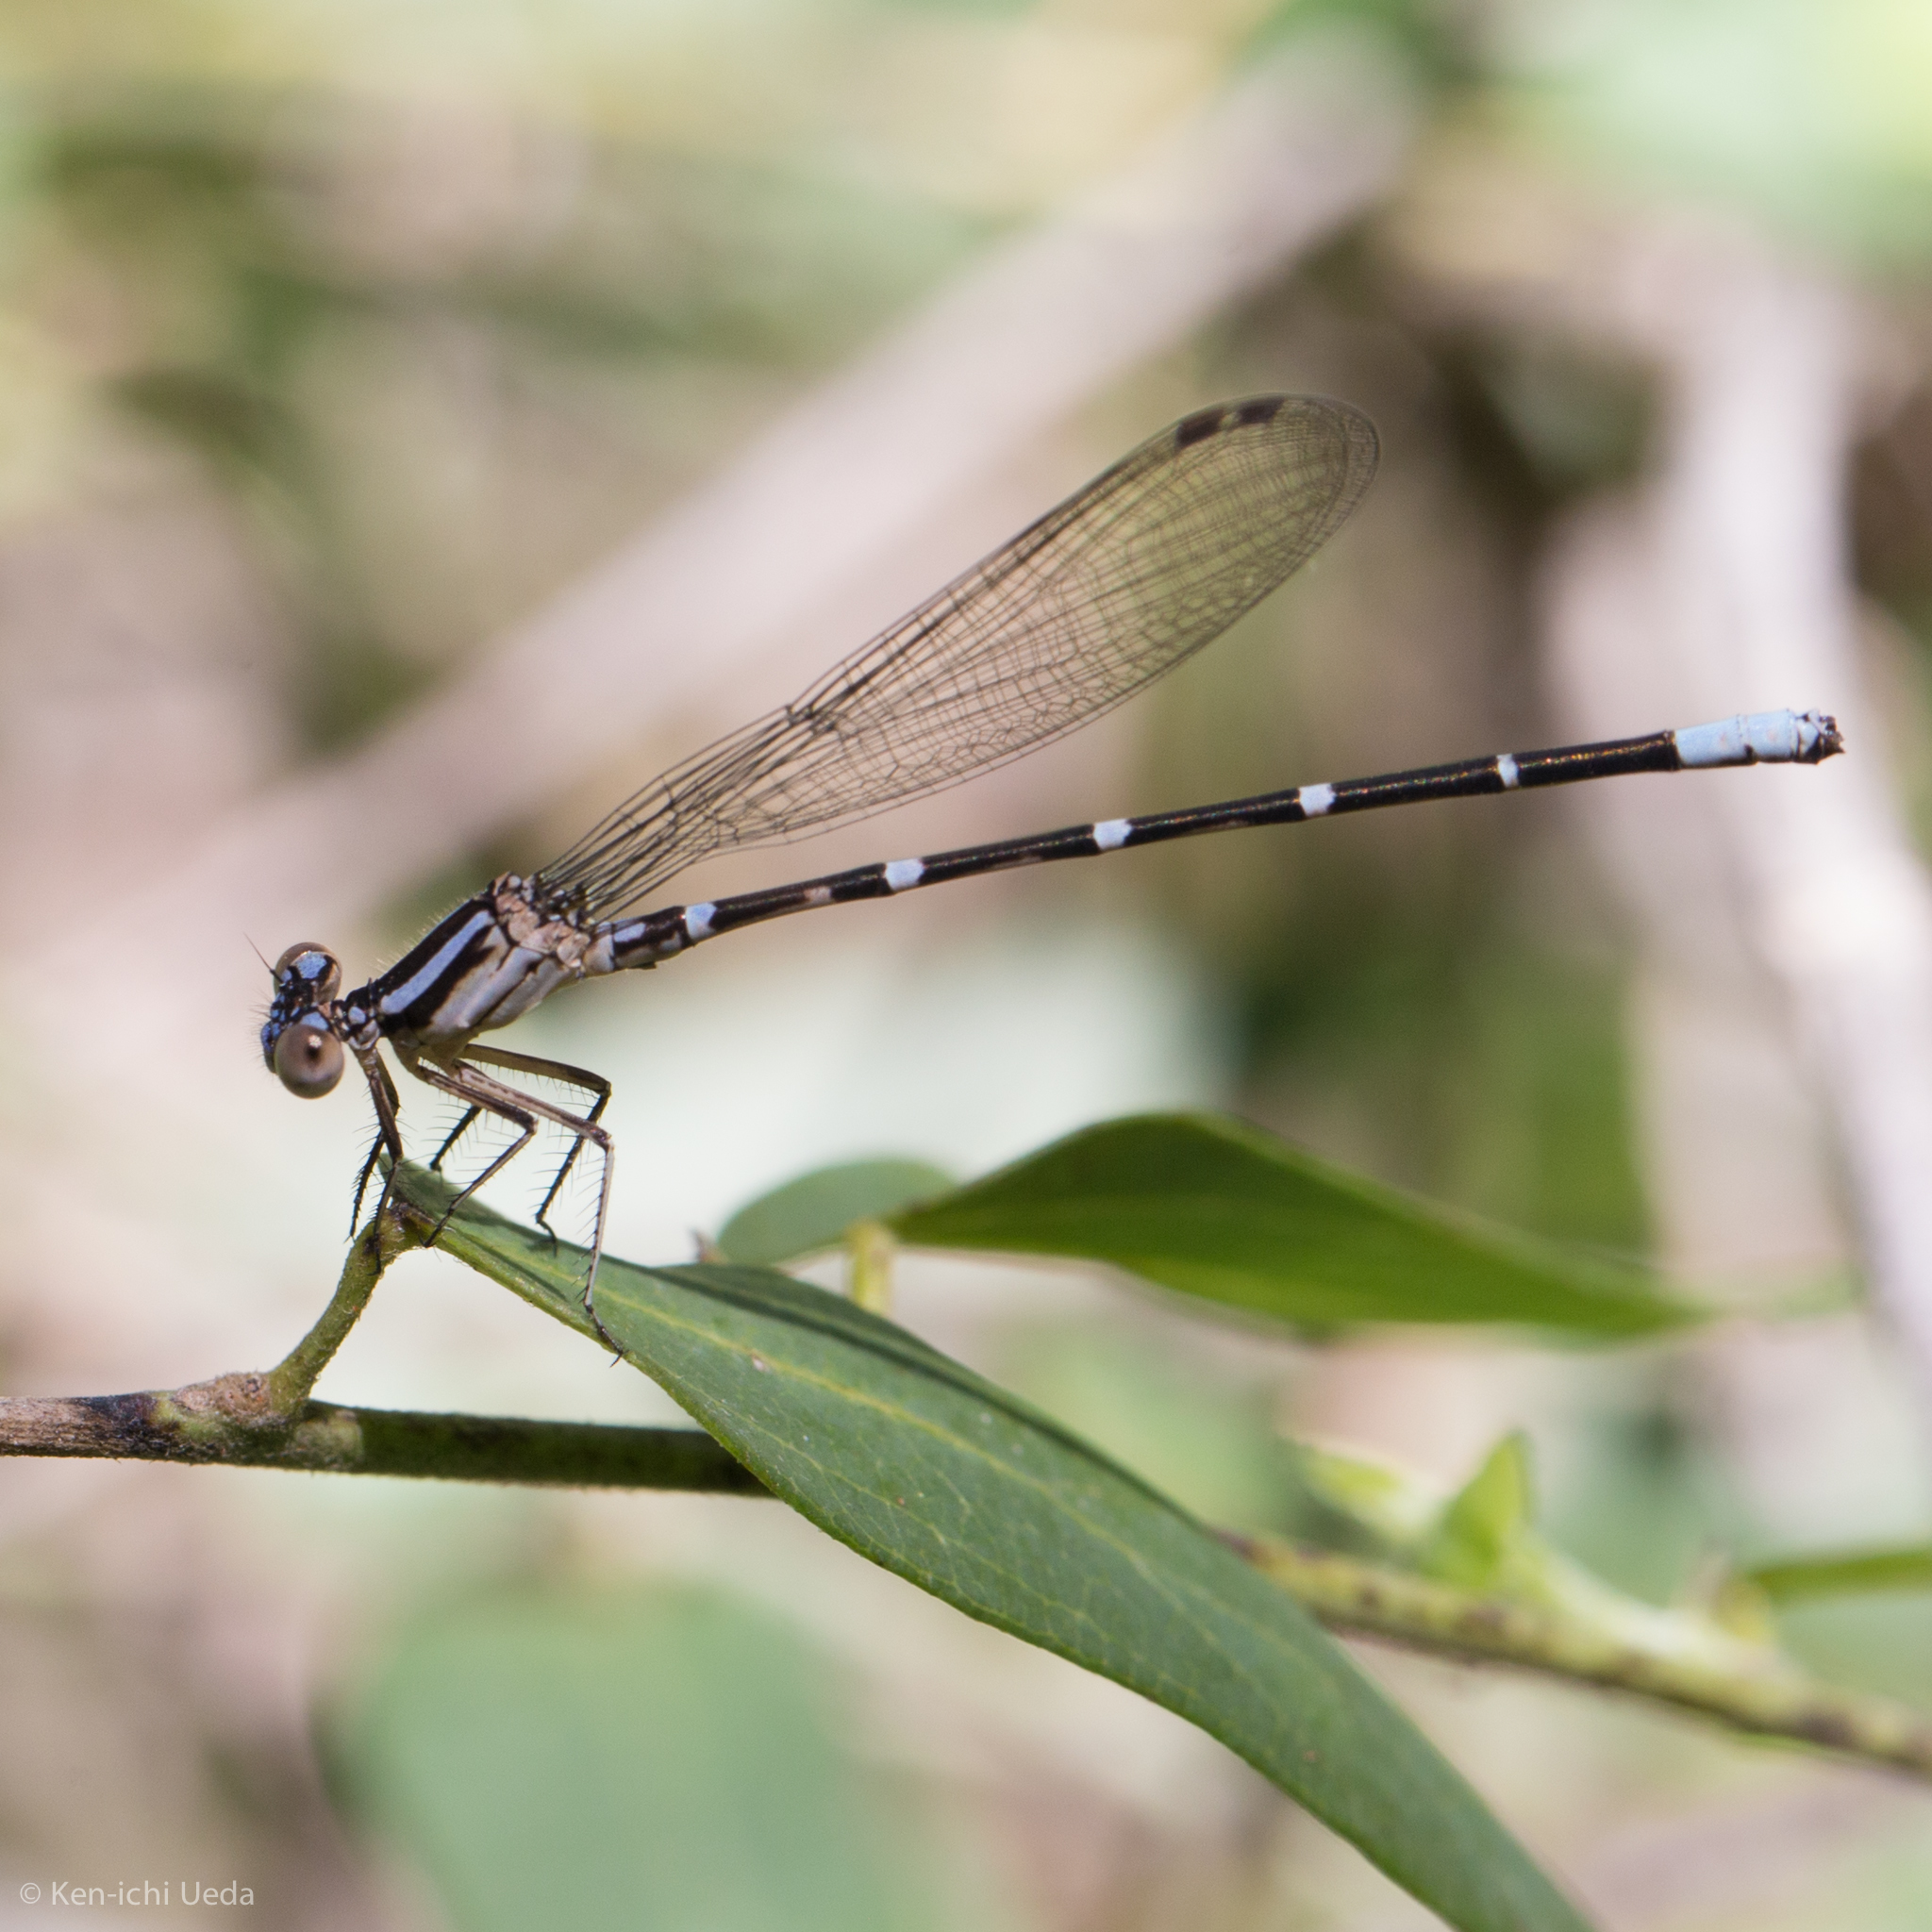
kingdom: Animalia
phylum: Arthropoda
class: Insecta
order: Odonata
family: Coenagrionidae
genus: Argia
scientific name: Argia sedula
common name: Blue-ringed dancer
